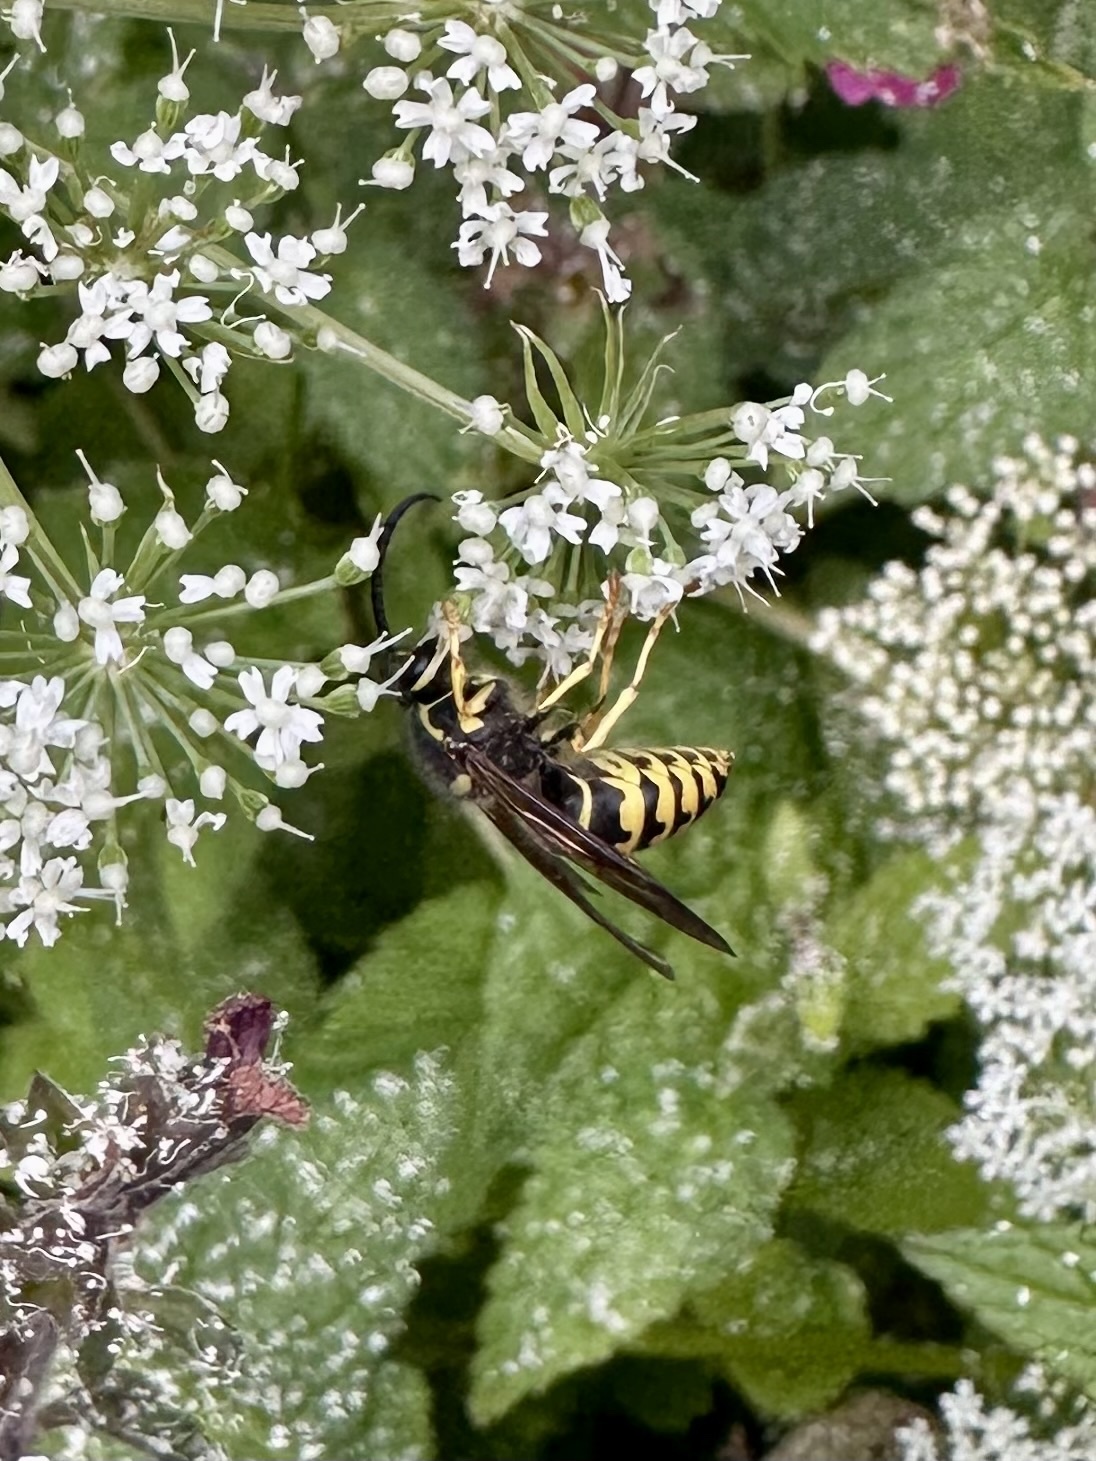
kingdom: Animalia
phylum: Arthropoda
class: Insecta
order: Hymenoptera
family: Vespidae
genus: Dolichovespula
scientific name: Dolichovespula arenaria
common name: Aerial yellowjacket
